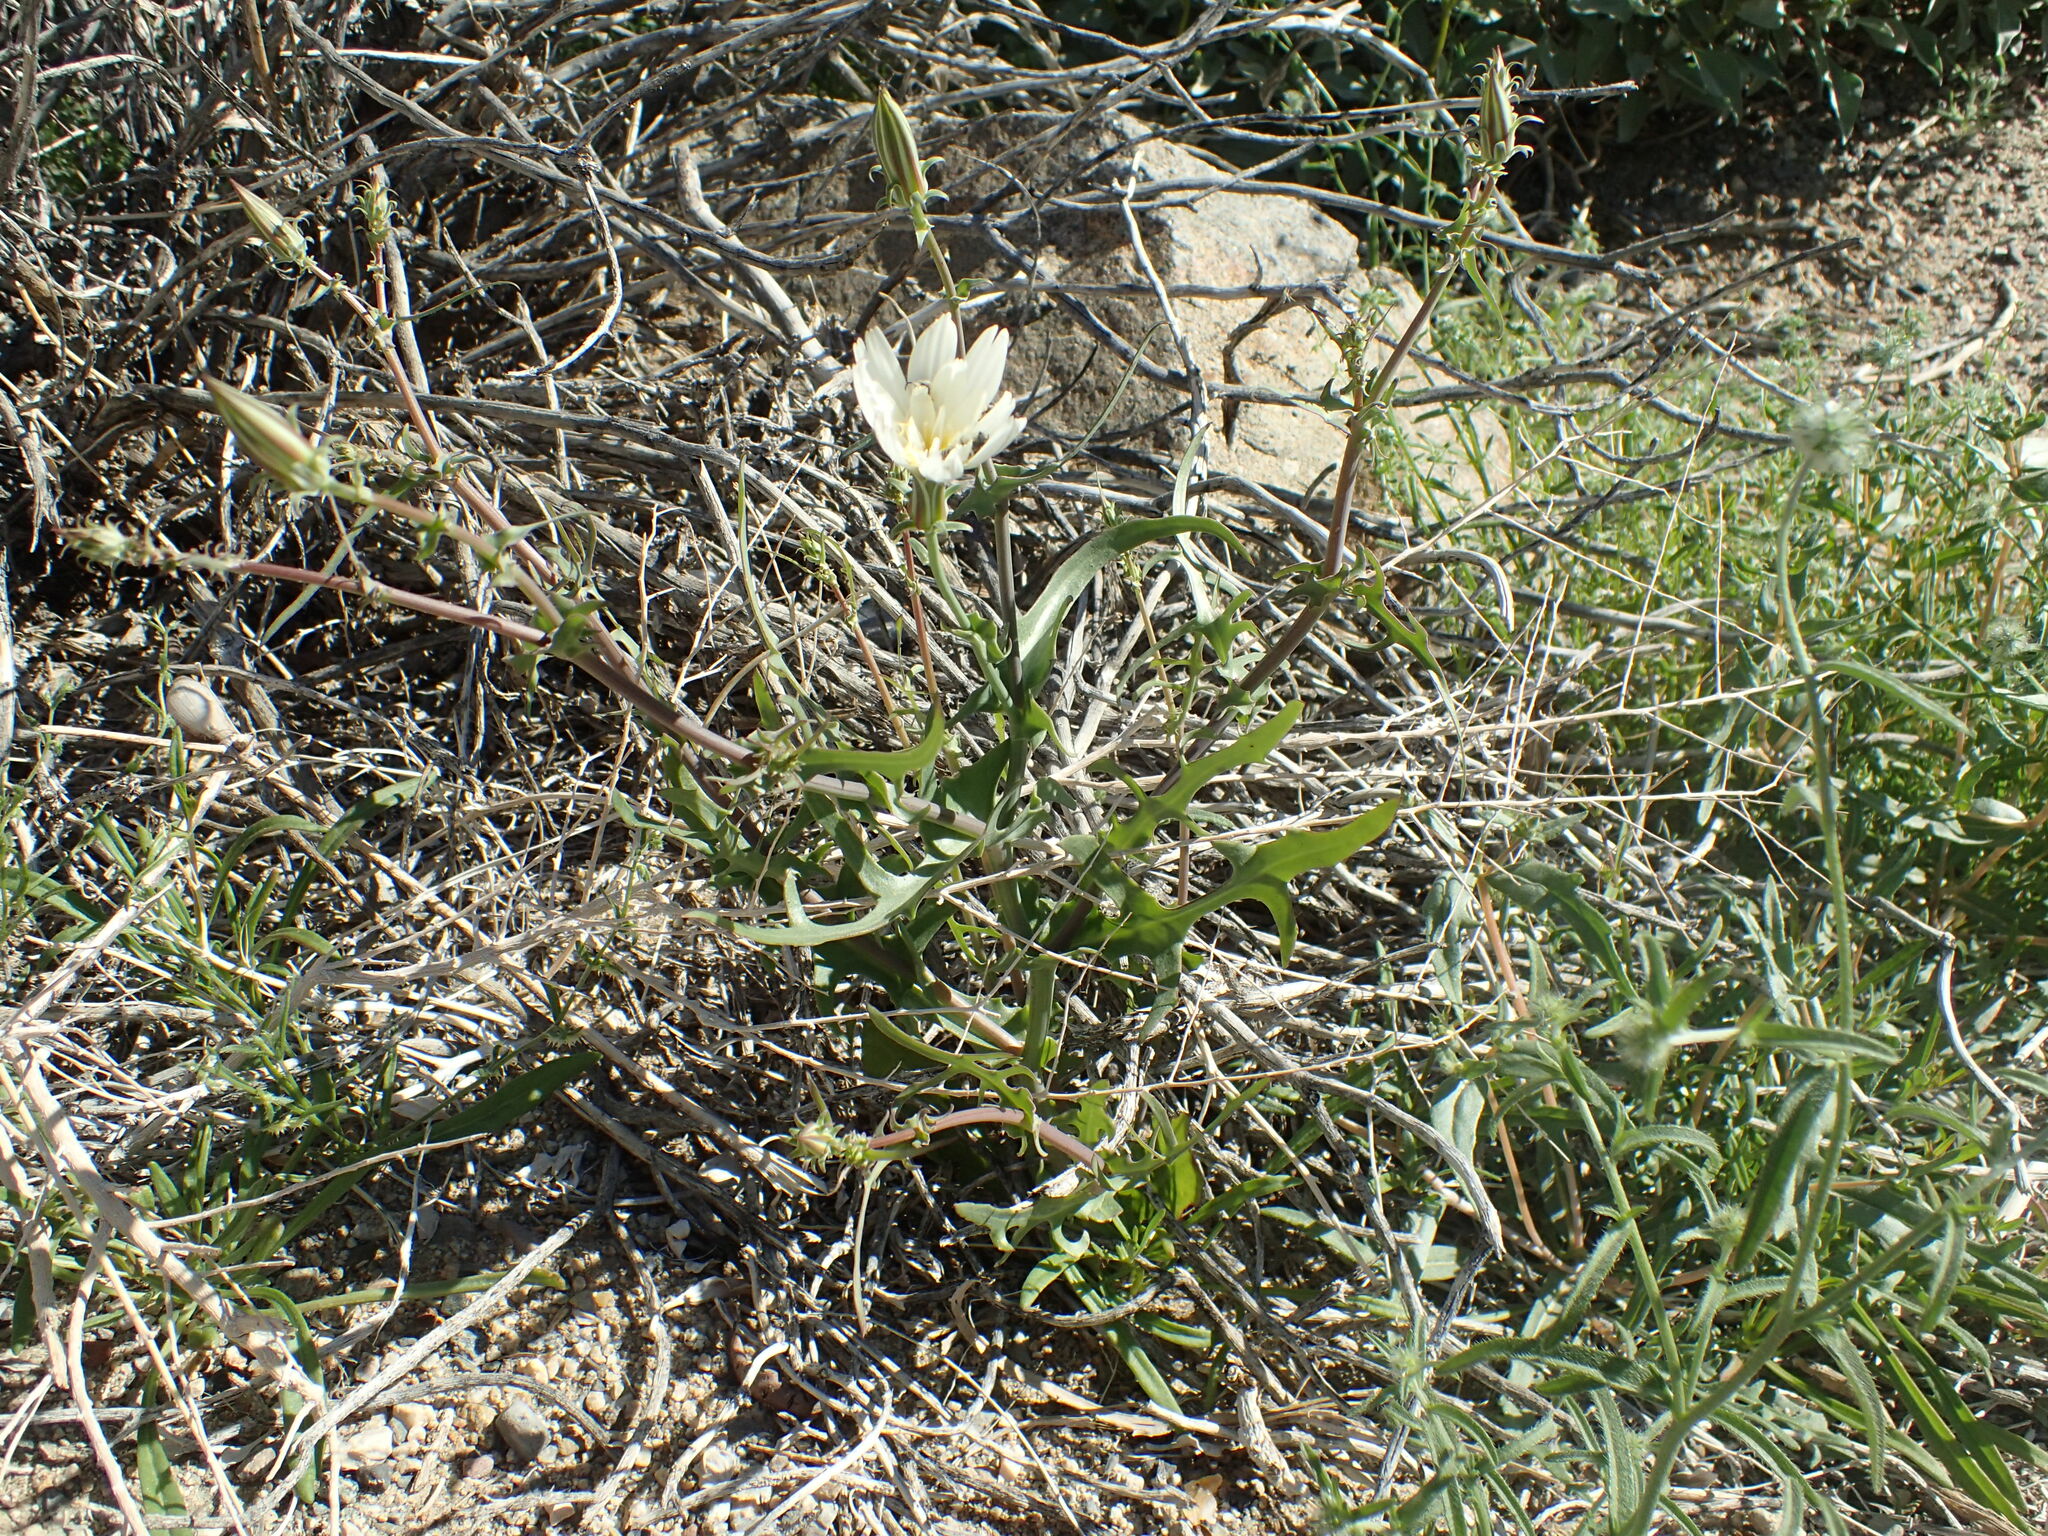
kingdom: Plantae
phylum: Tracheophyta
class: Magnoliopsida
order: Asterales
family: Asteraceae
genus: Rafinesquia
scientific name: Rafinesquia neomexicana
